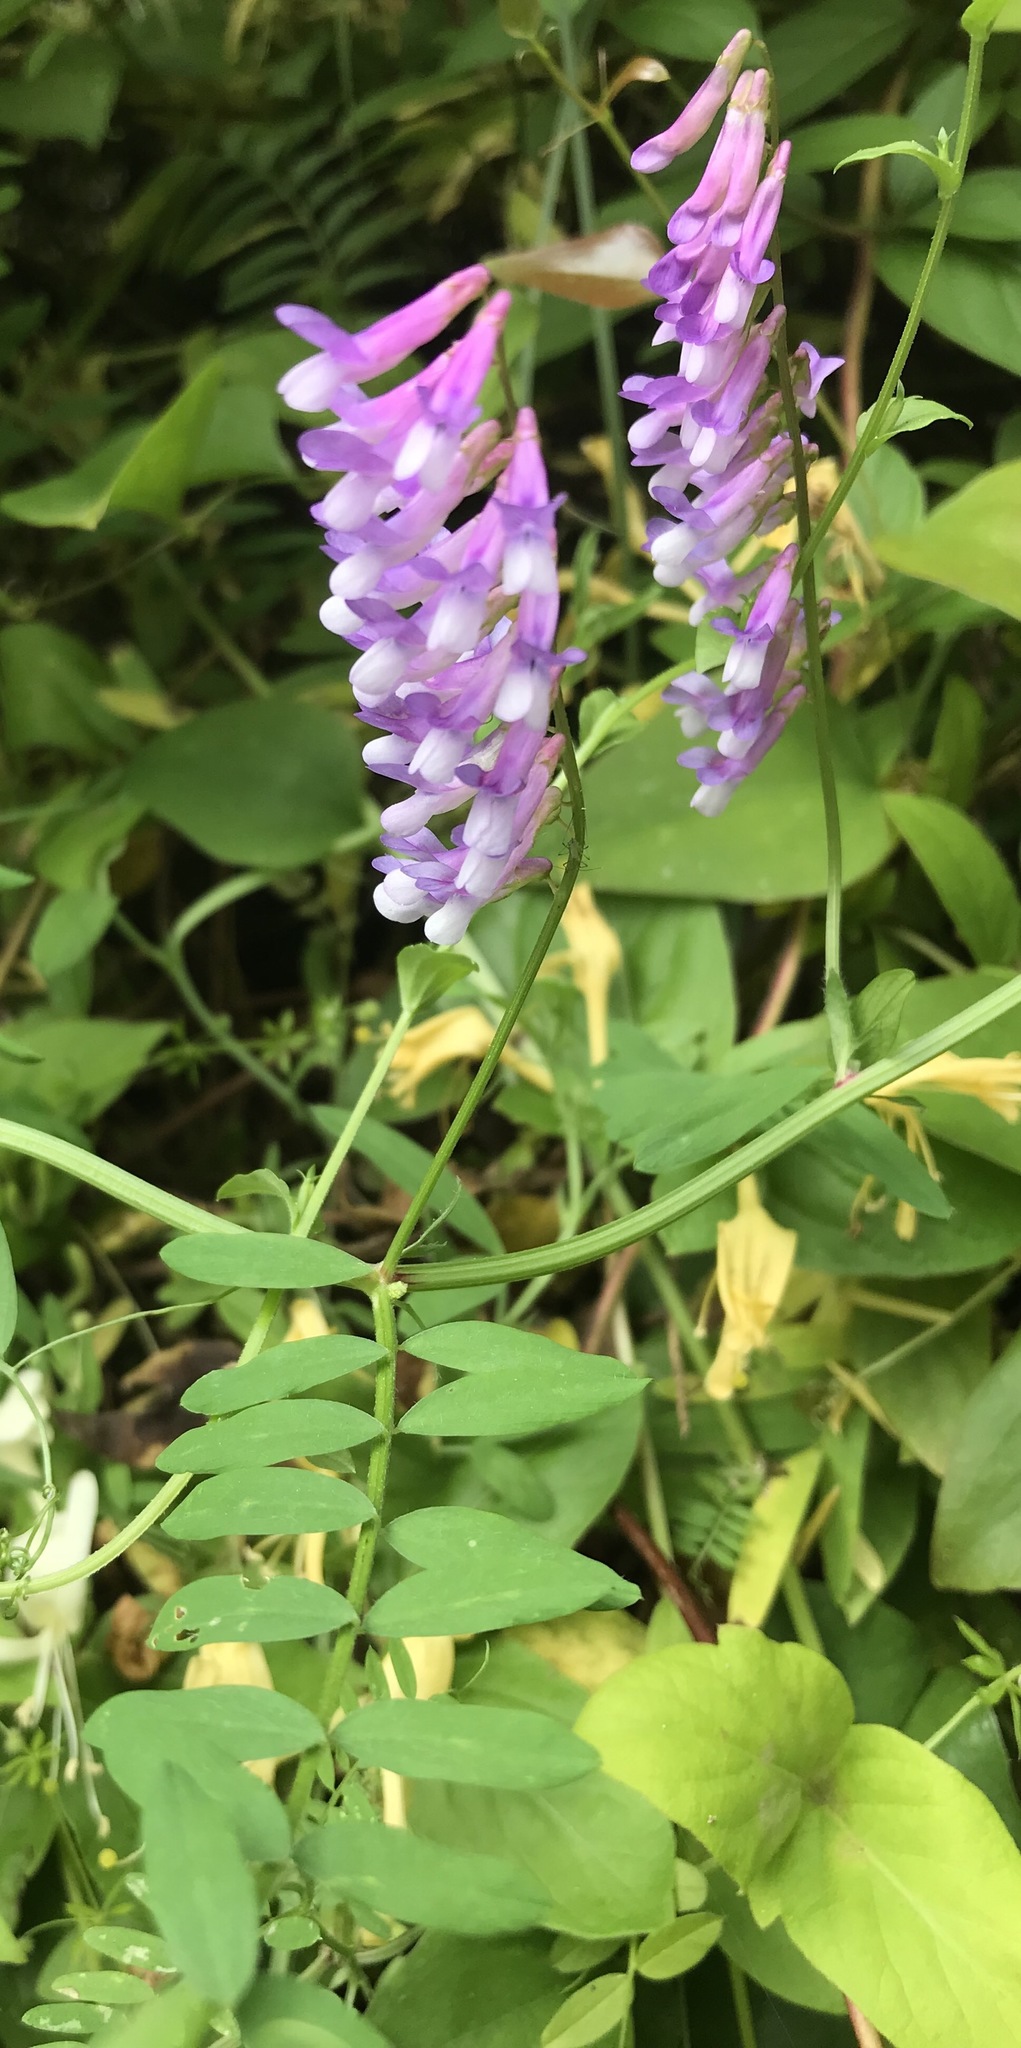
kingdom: Plantae
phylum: Tracheophyta
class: Magnoliopsida
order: Fabales
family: Fabaceae
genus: Vicia
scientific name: Vicia villosa
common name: Fodder vetch
